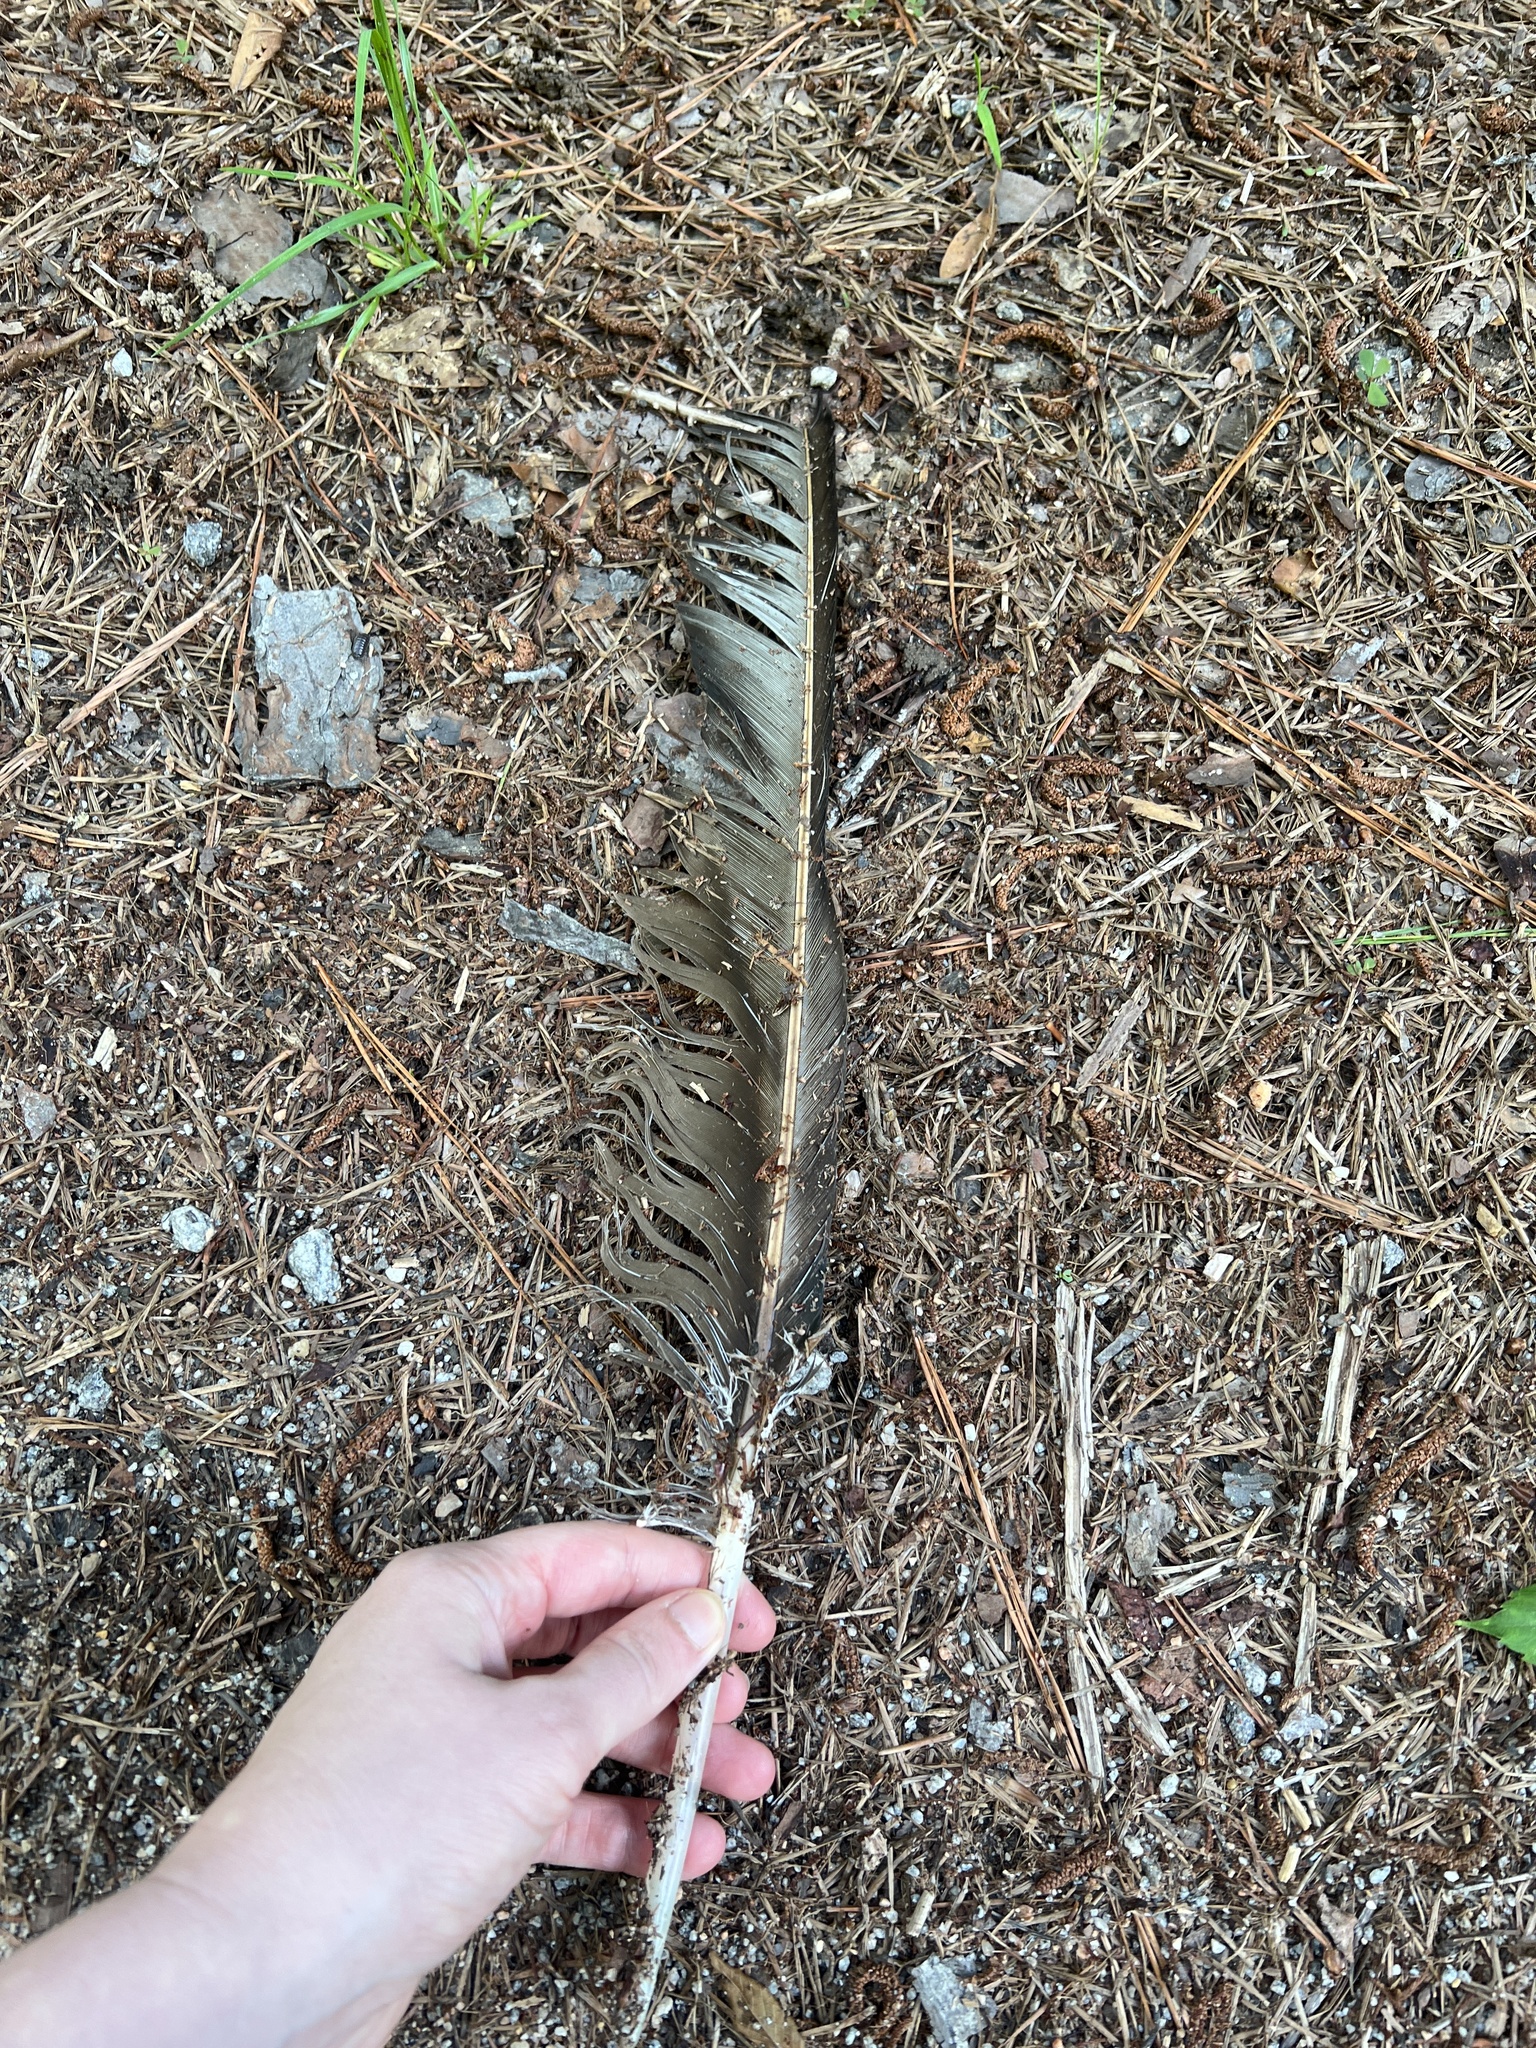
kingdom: Animalia
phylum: Chordata
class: Aves
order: Accipitriformes
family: Cathartidae
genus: Cathartes
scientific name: Cathartes aura
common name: Turkey vulture
